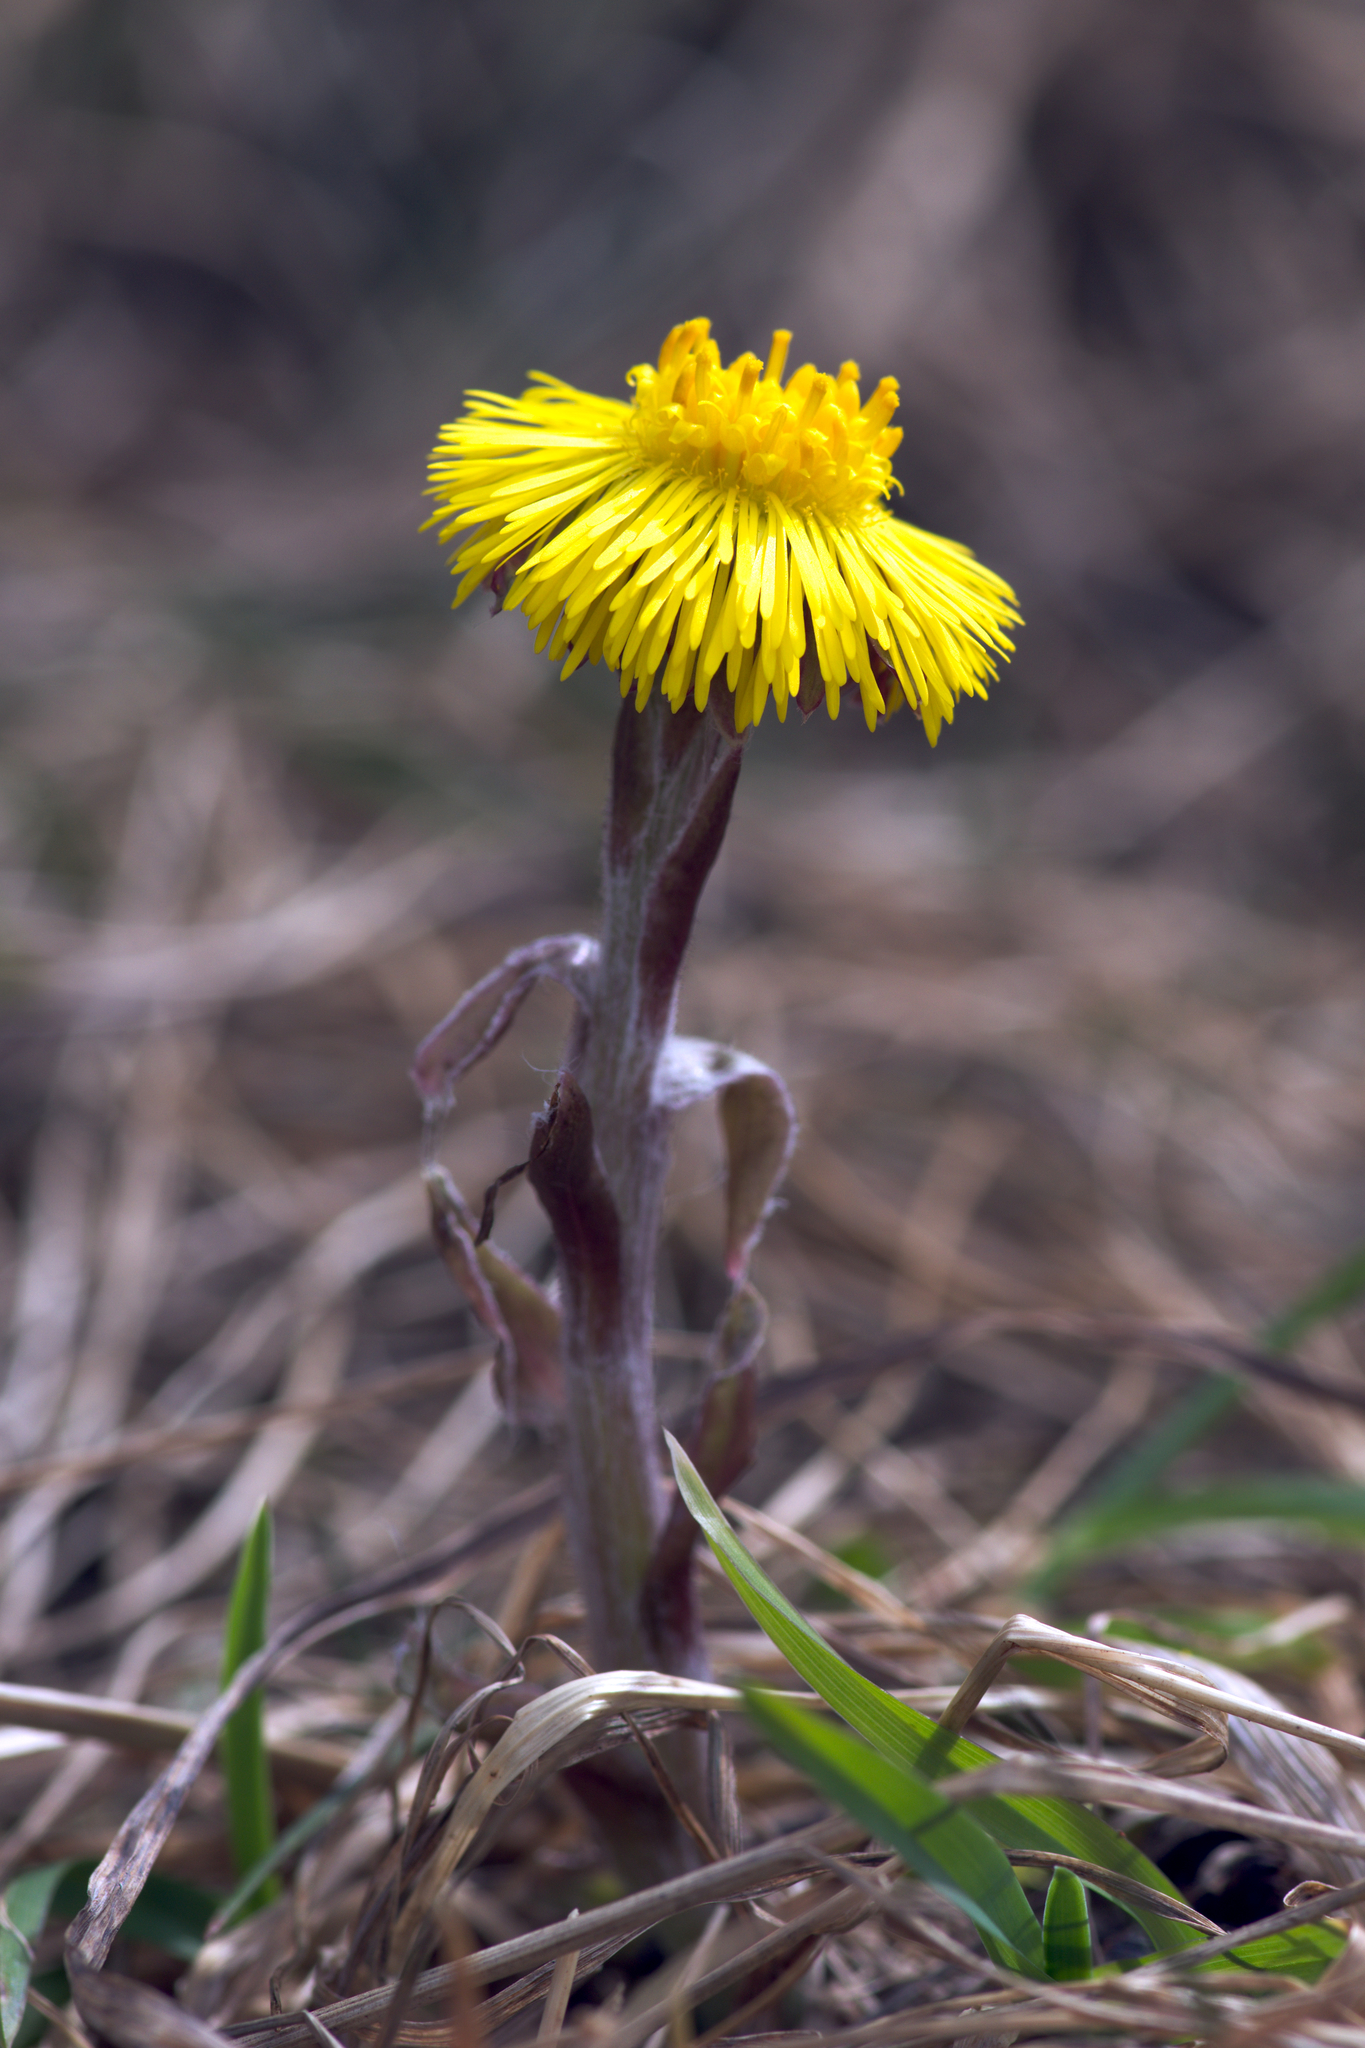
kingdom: Plantae
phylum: Tracheophyta
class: Magnoliopsida
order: Asterales
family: Asteraceae
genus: Tussilago
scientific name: Tussilago farfara
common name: Coltsfoot
